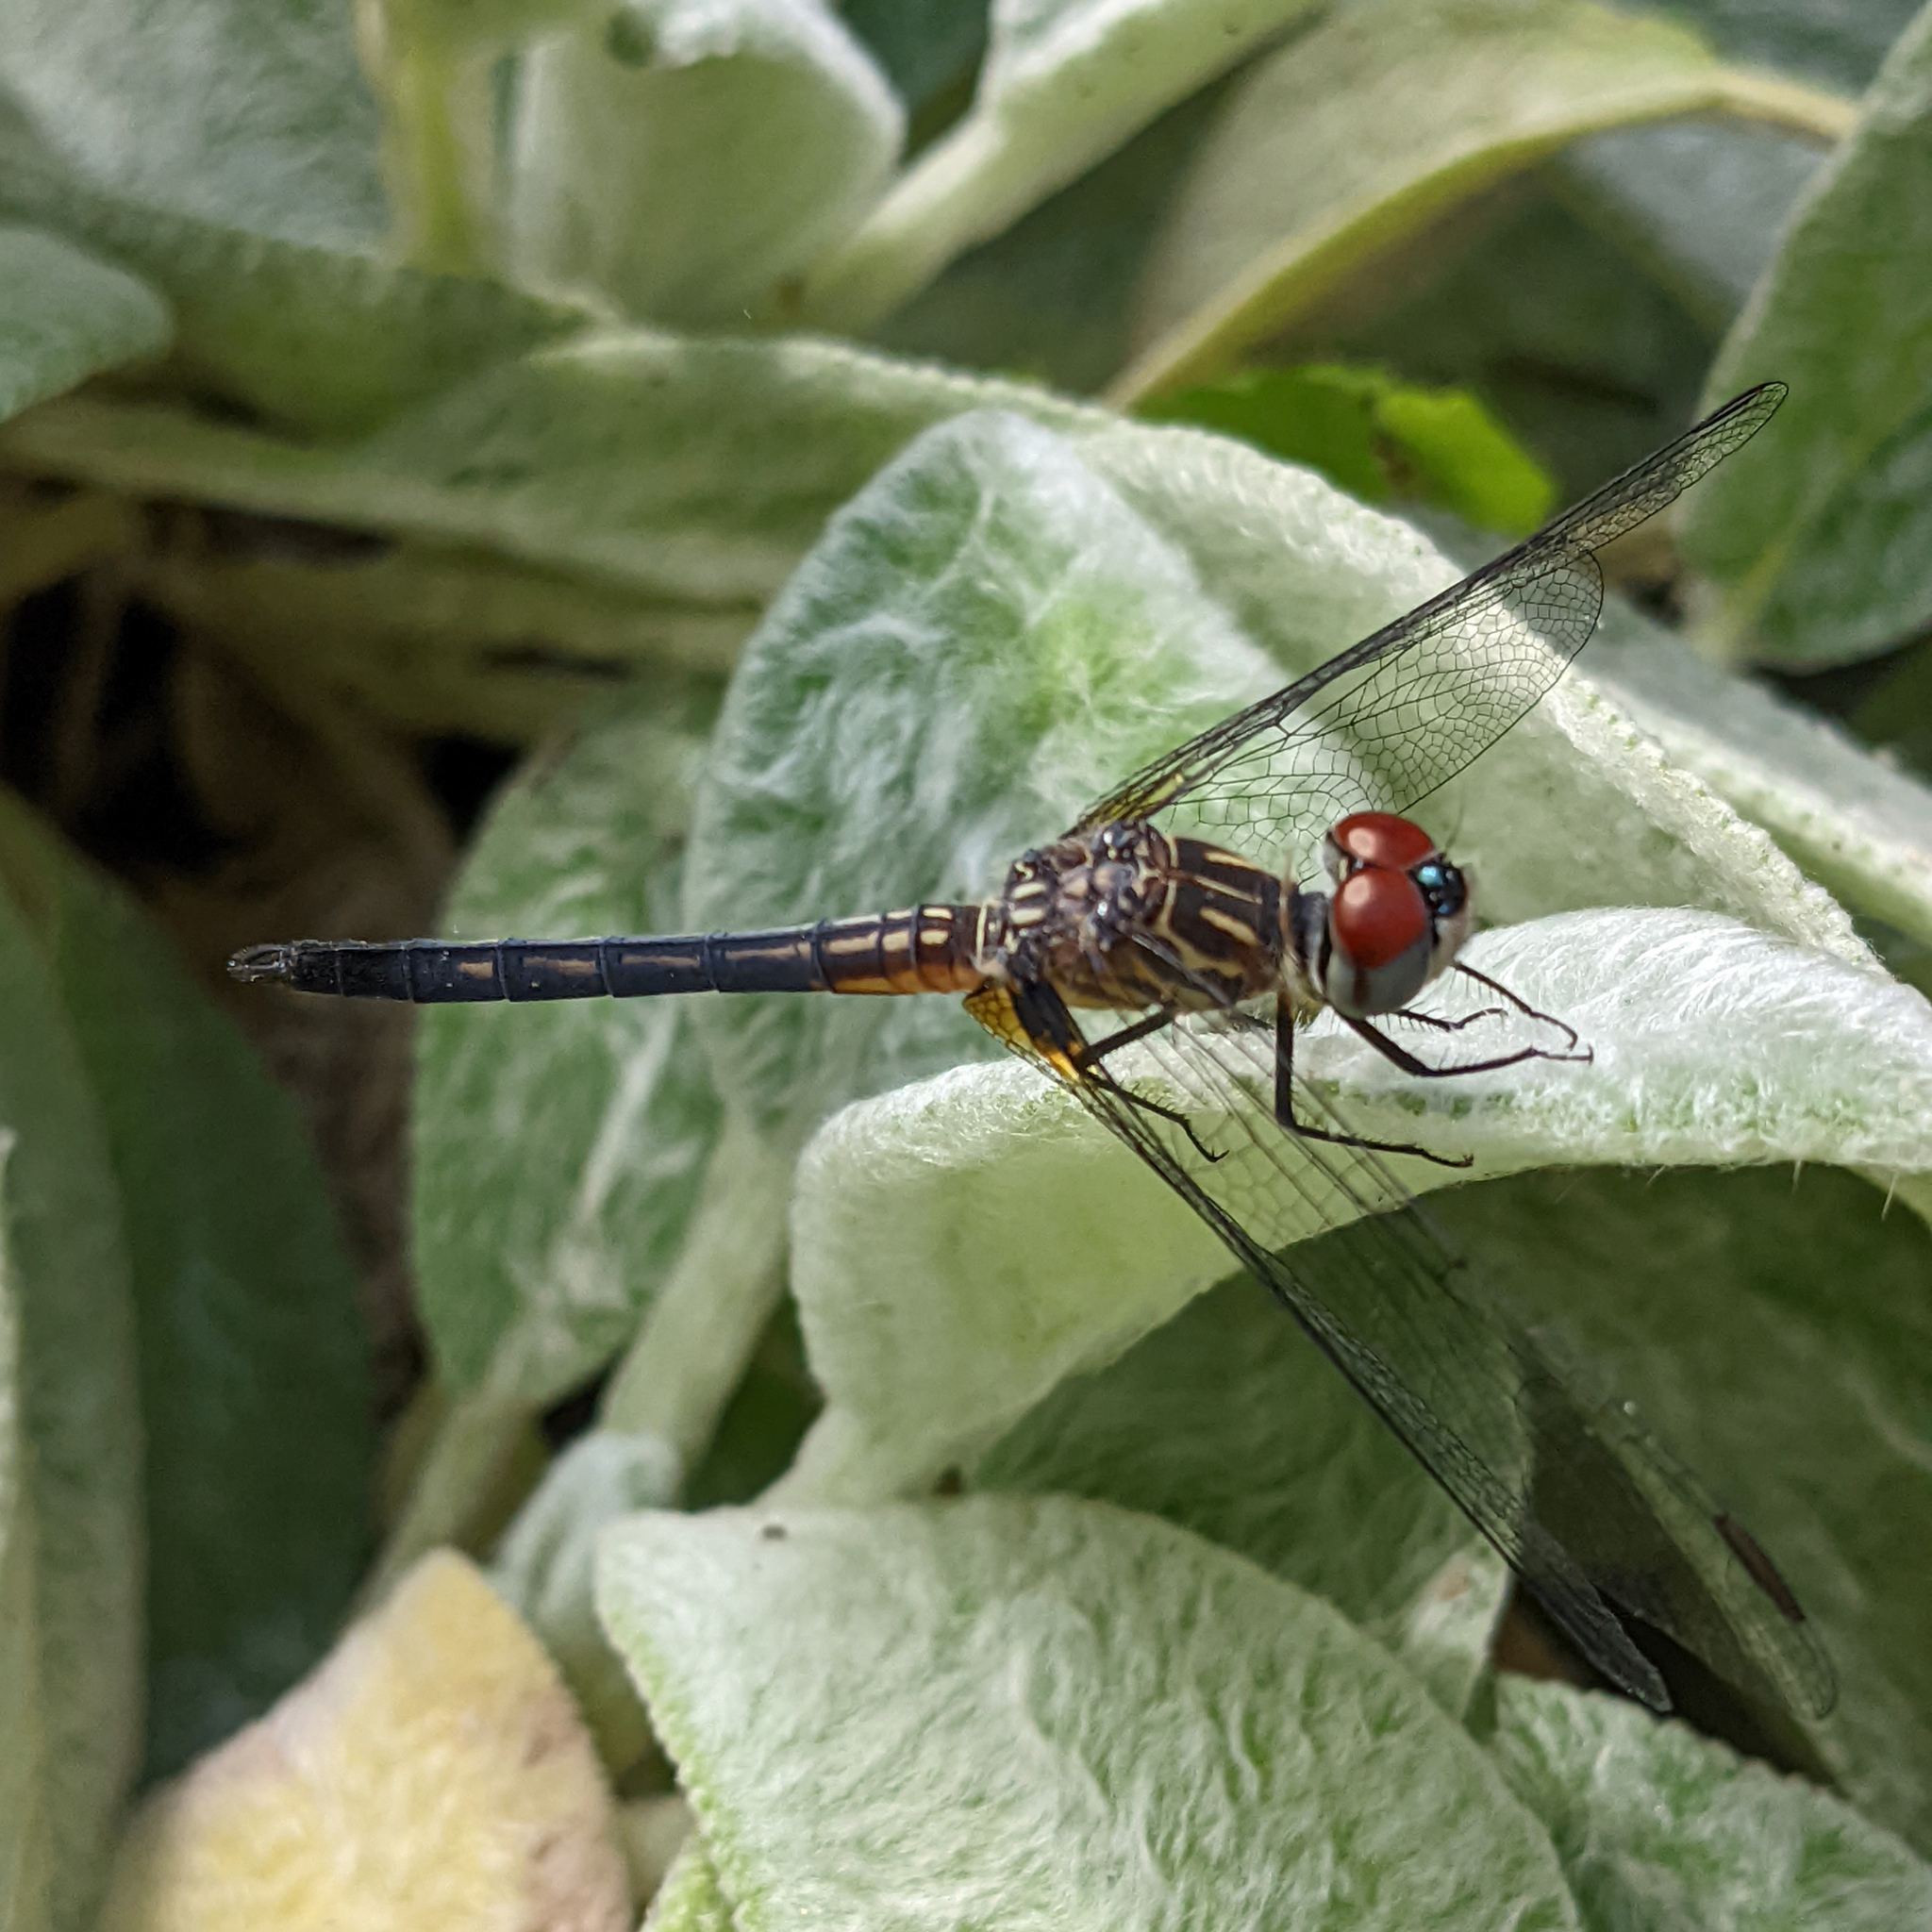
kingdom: Animalia
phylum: Arthropoda
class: Insecta
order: Odonata
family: Libellulidae
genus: Pachydiplax
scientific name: Pachydiplax longipennis
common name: Blue dasher
